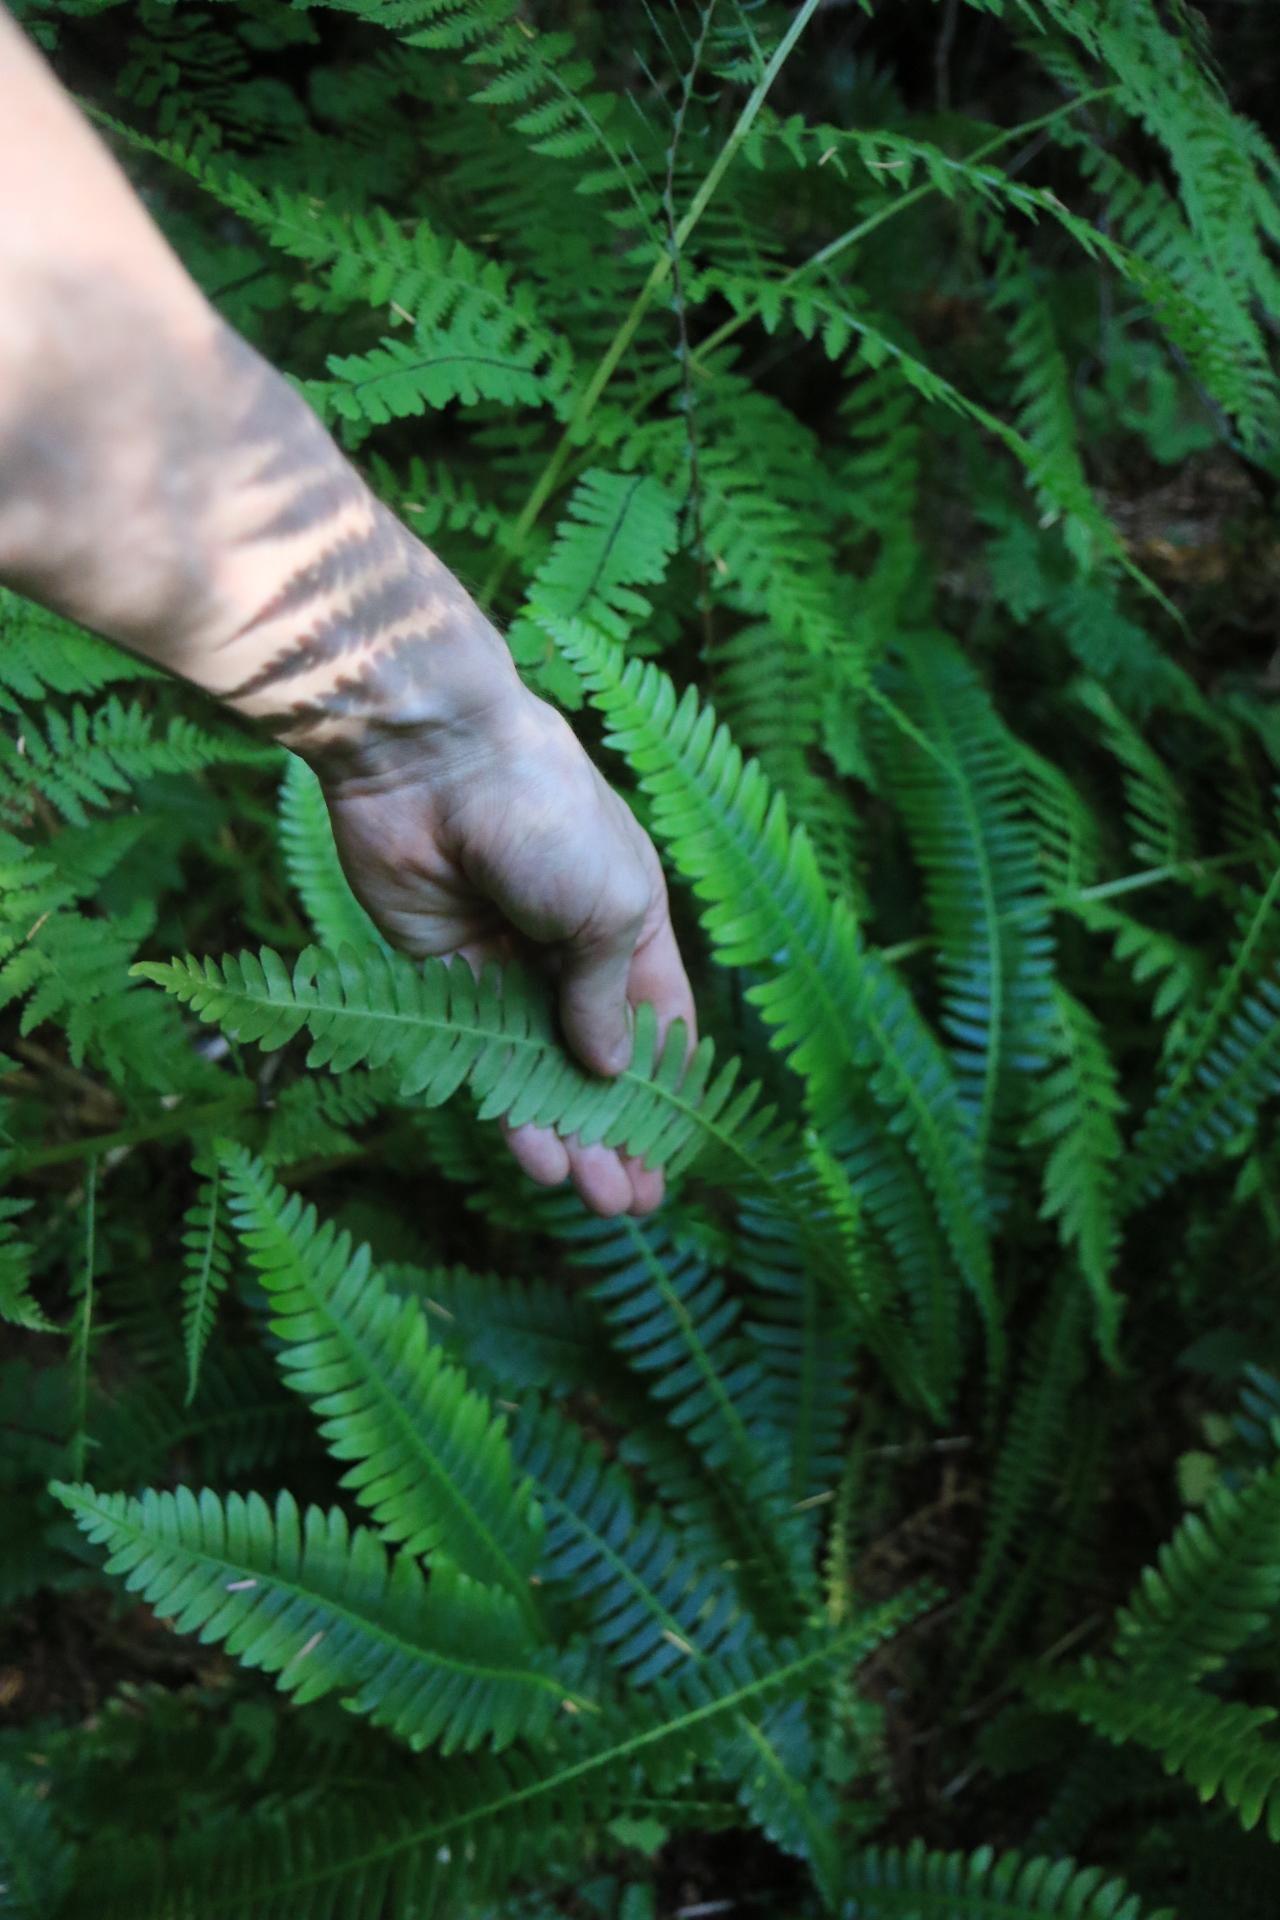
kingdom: Plantae
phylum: Tracheophyta
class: Polypodiopsida
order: Polypodiales
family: Blechnaceae
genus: Struthiopteris
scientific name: Struthiopteris spicant
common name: Deer fern
